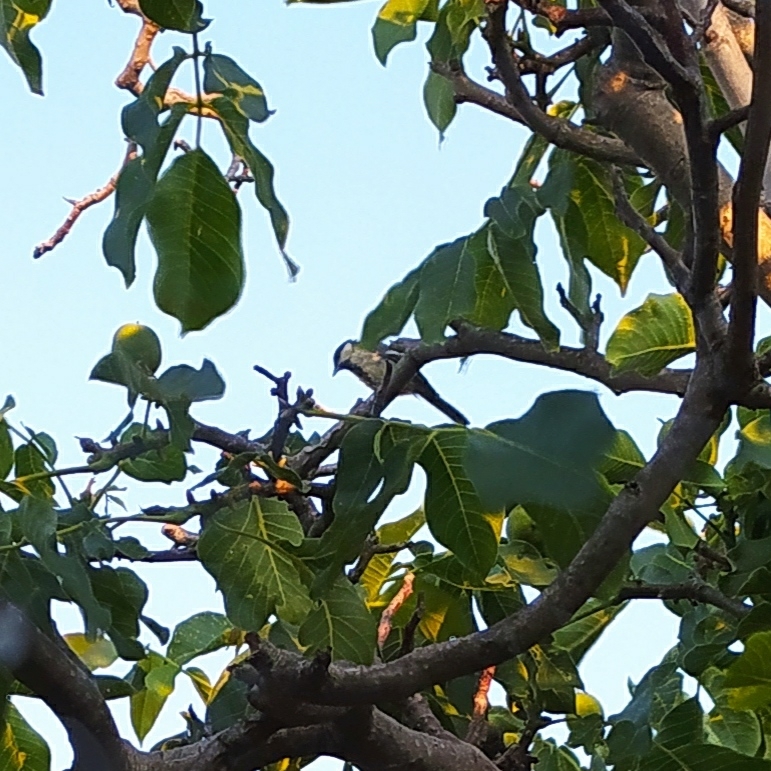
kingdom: Animalia
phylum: Chordata
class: Aves
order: Passeriformes
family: Paridae
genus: Parus
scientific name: Parus major
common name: Great tit
